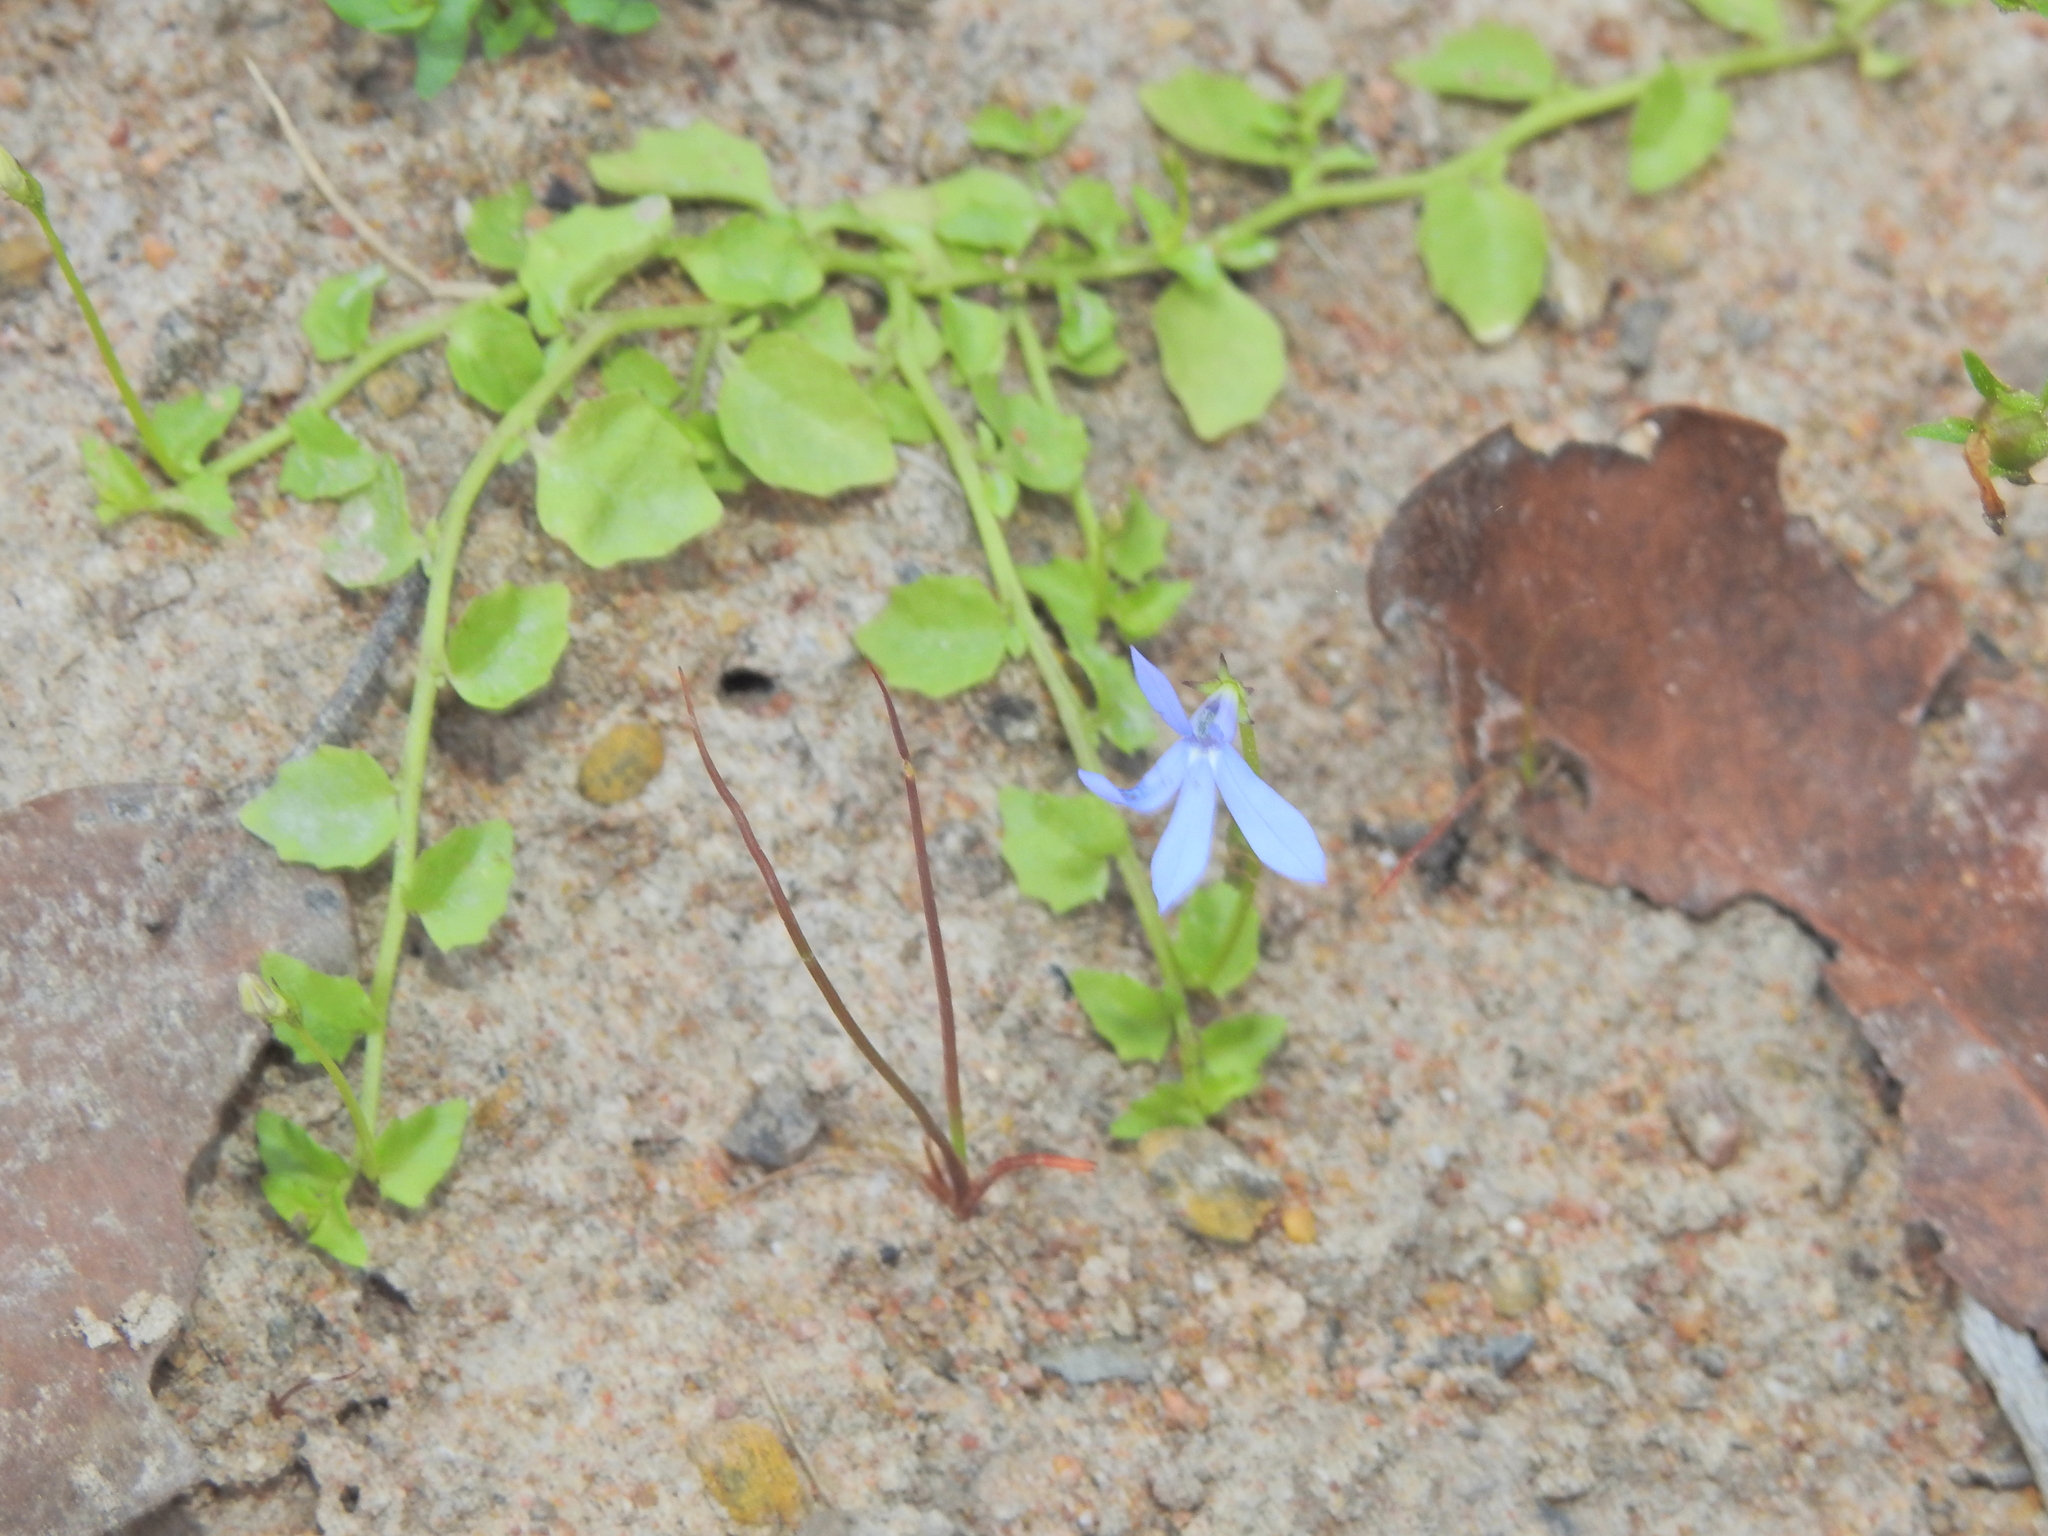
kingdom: Plantae
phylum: Tracheophyta
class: Magnoliopsida
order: Asterales
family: Campanulaceae
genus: Lobelia
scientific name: Lobelia quadrangularis
